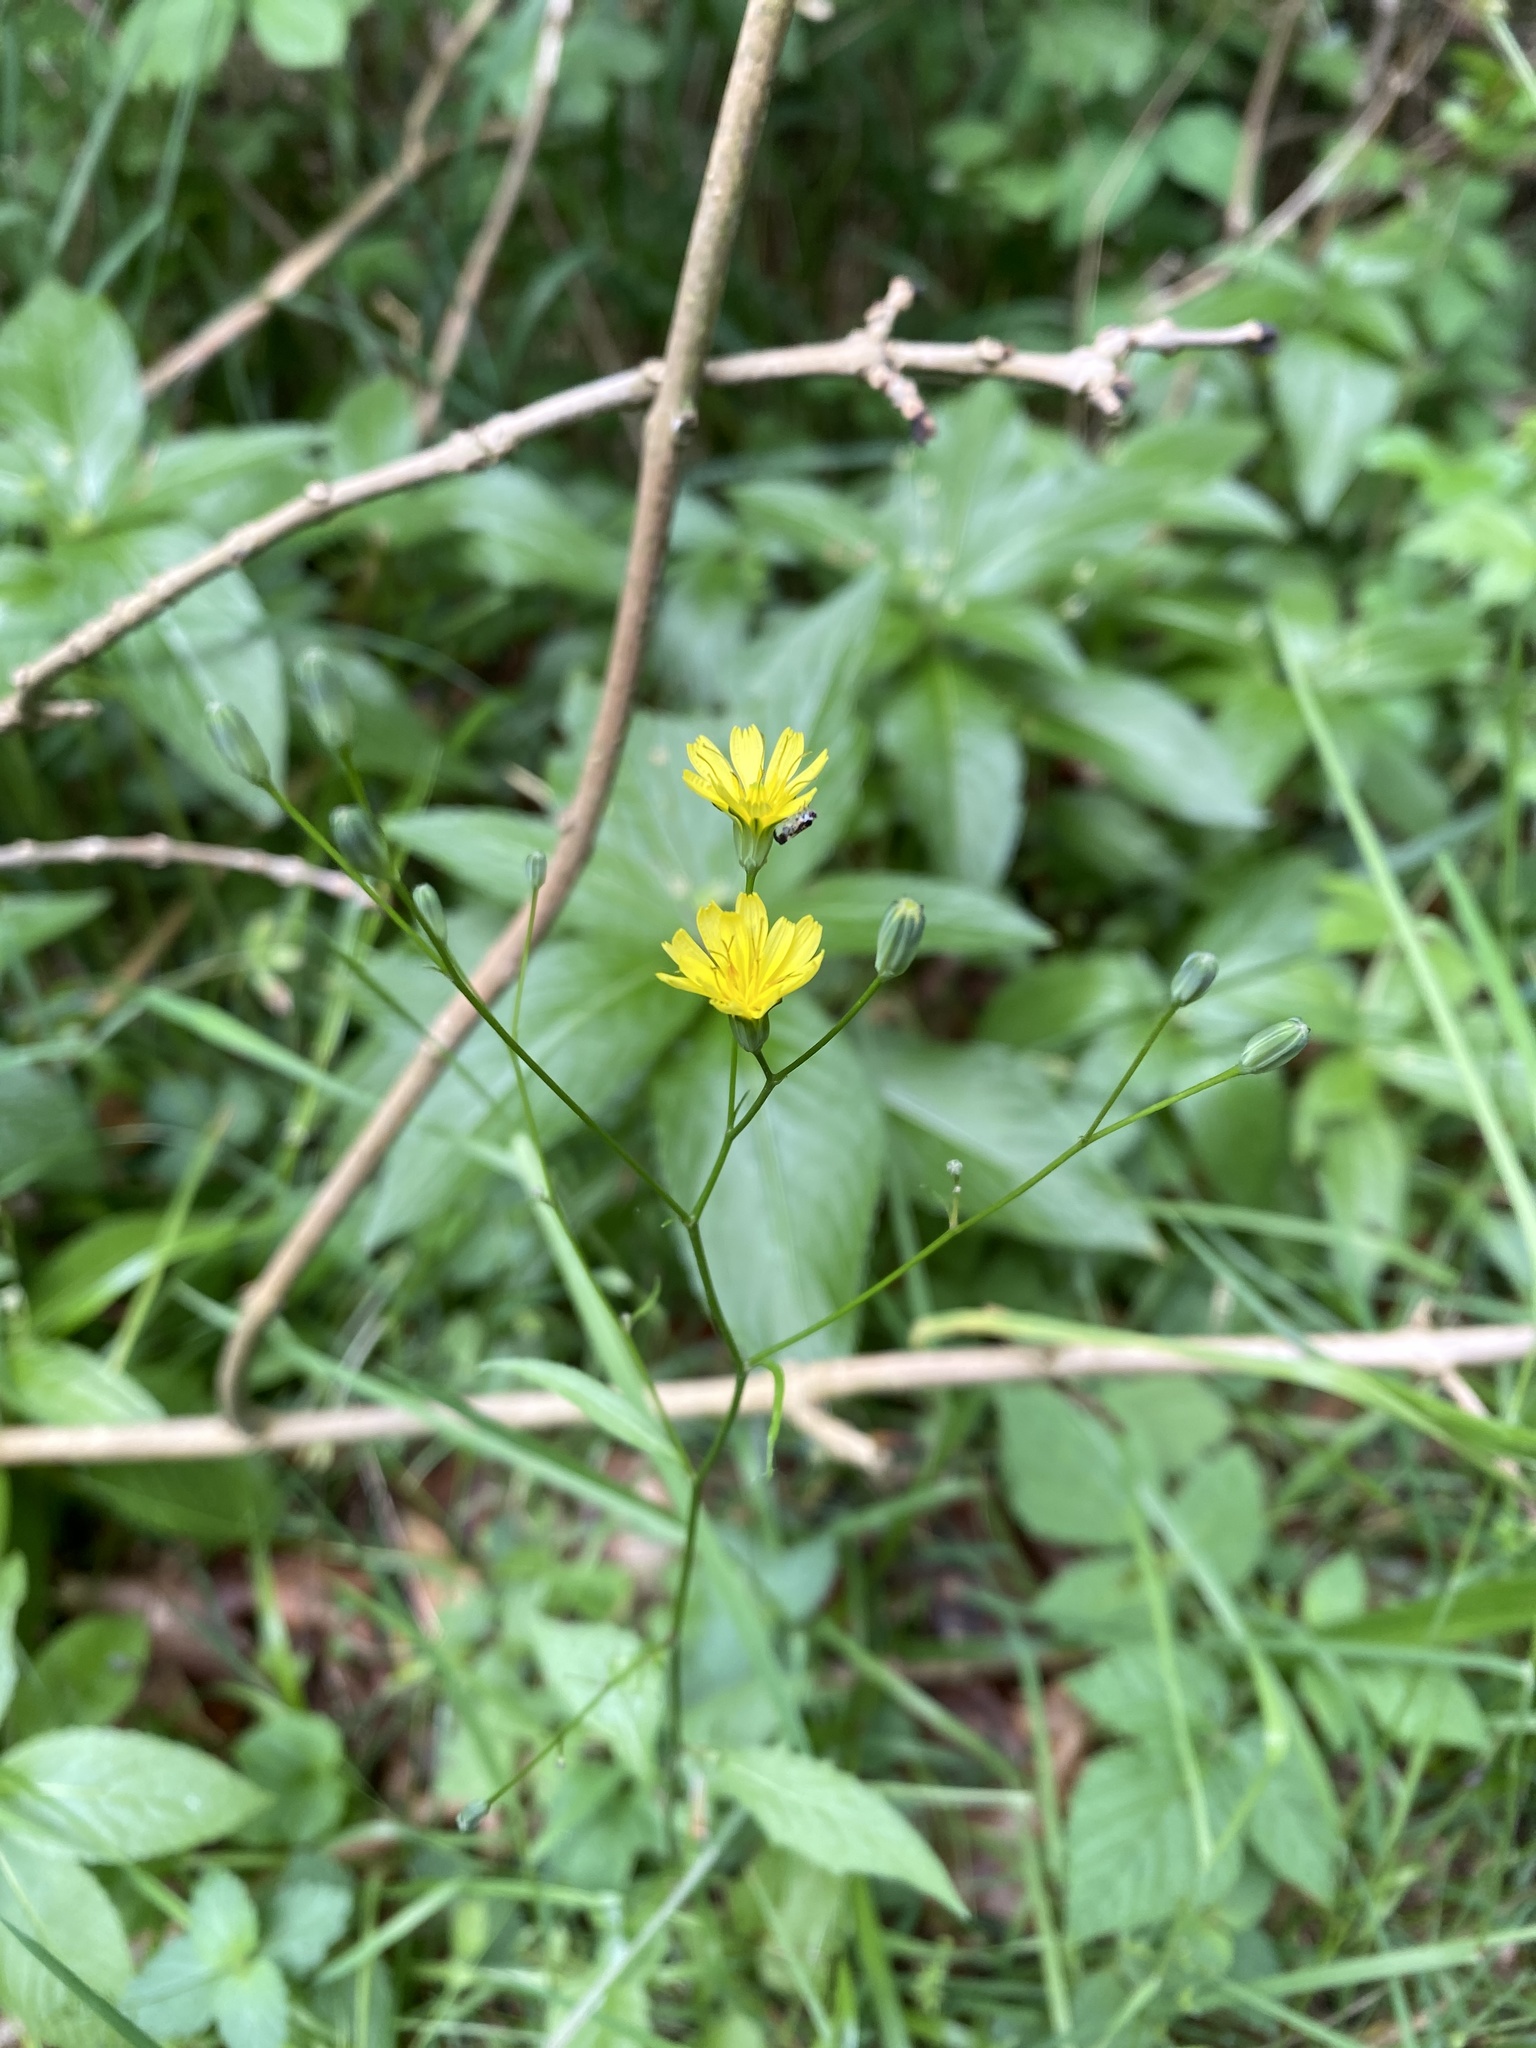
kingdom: Plantae
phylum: Tracheophyta
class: Magnoliopsida
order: Asterales
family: Asteraceae
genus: Lapsana
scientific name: Lapsana communis
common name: Nipplewort
